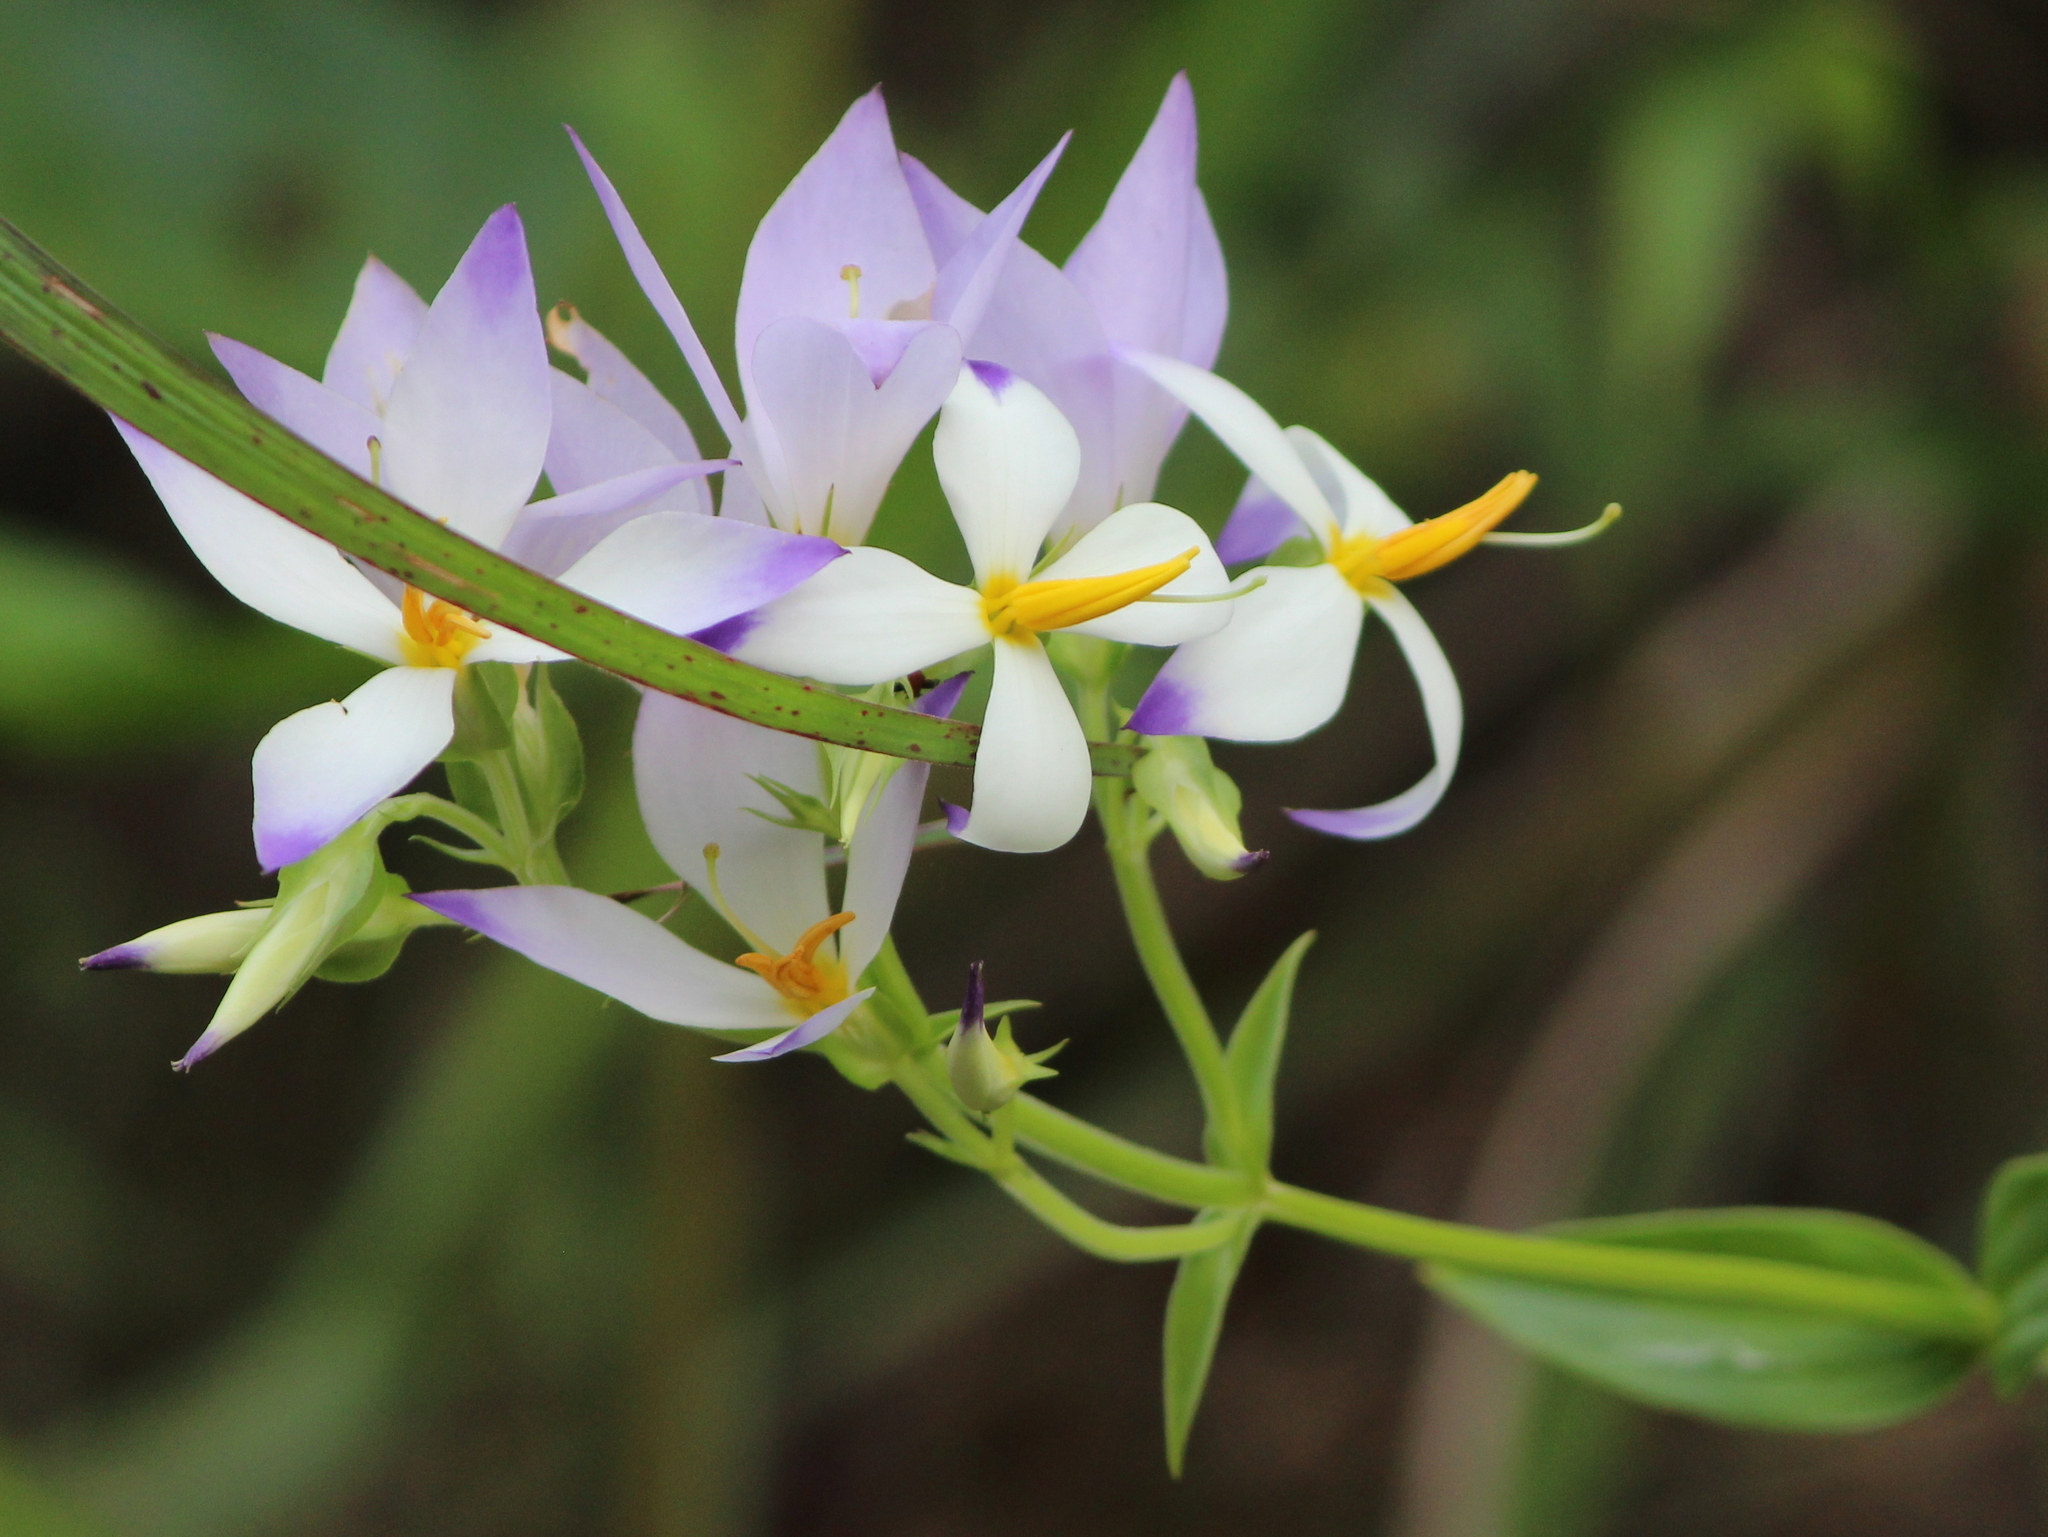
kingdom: Plantae
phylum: Tracheophyta
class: Magnoliopsida
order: Gentianales
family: Gentianaceae
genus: Exacum
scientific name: Exacum tetragonum
